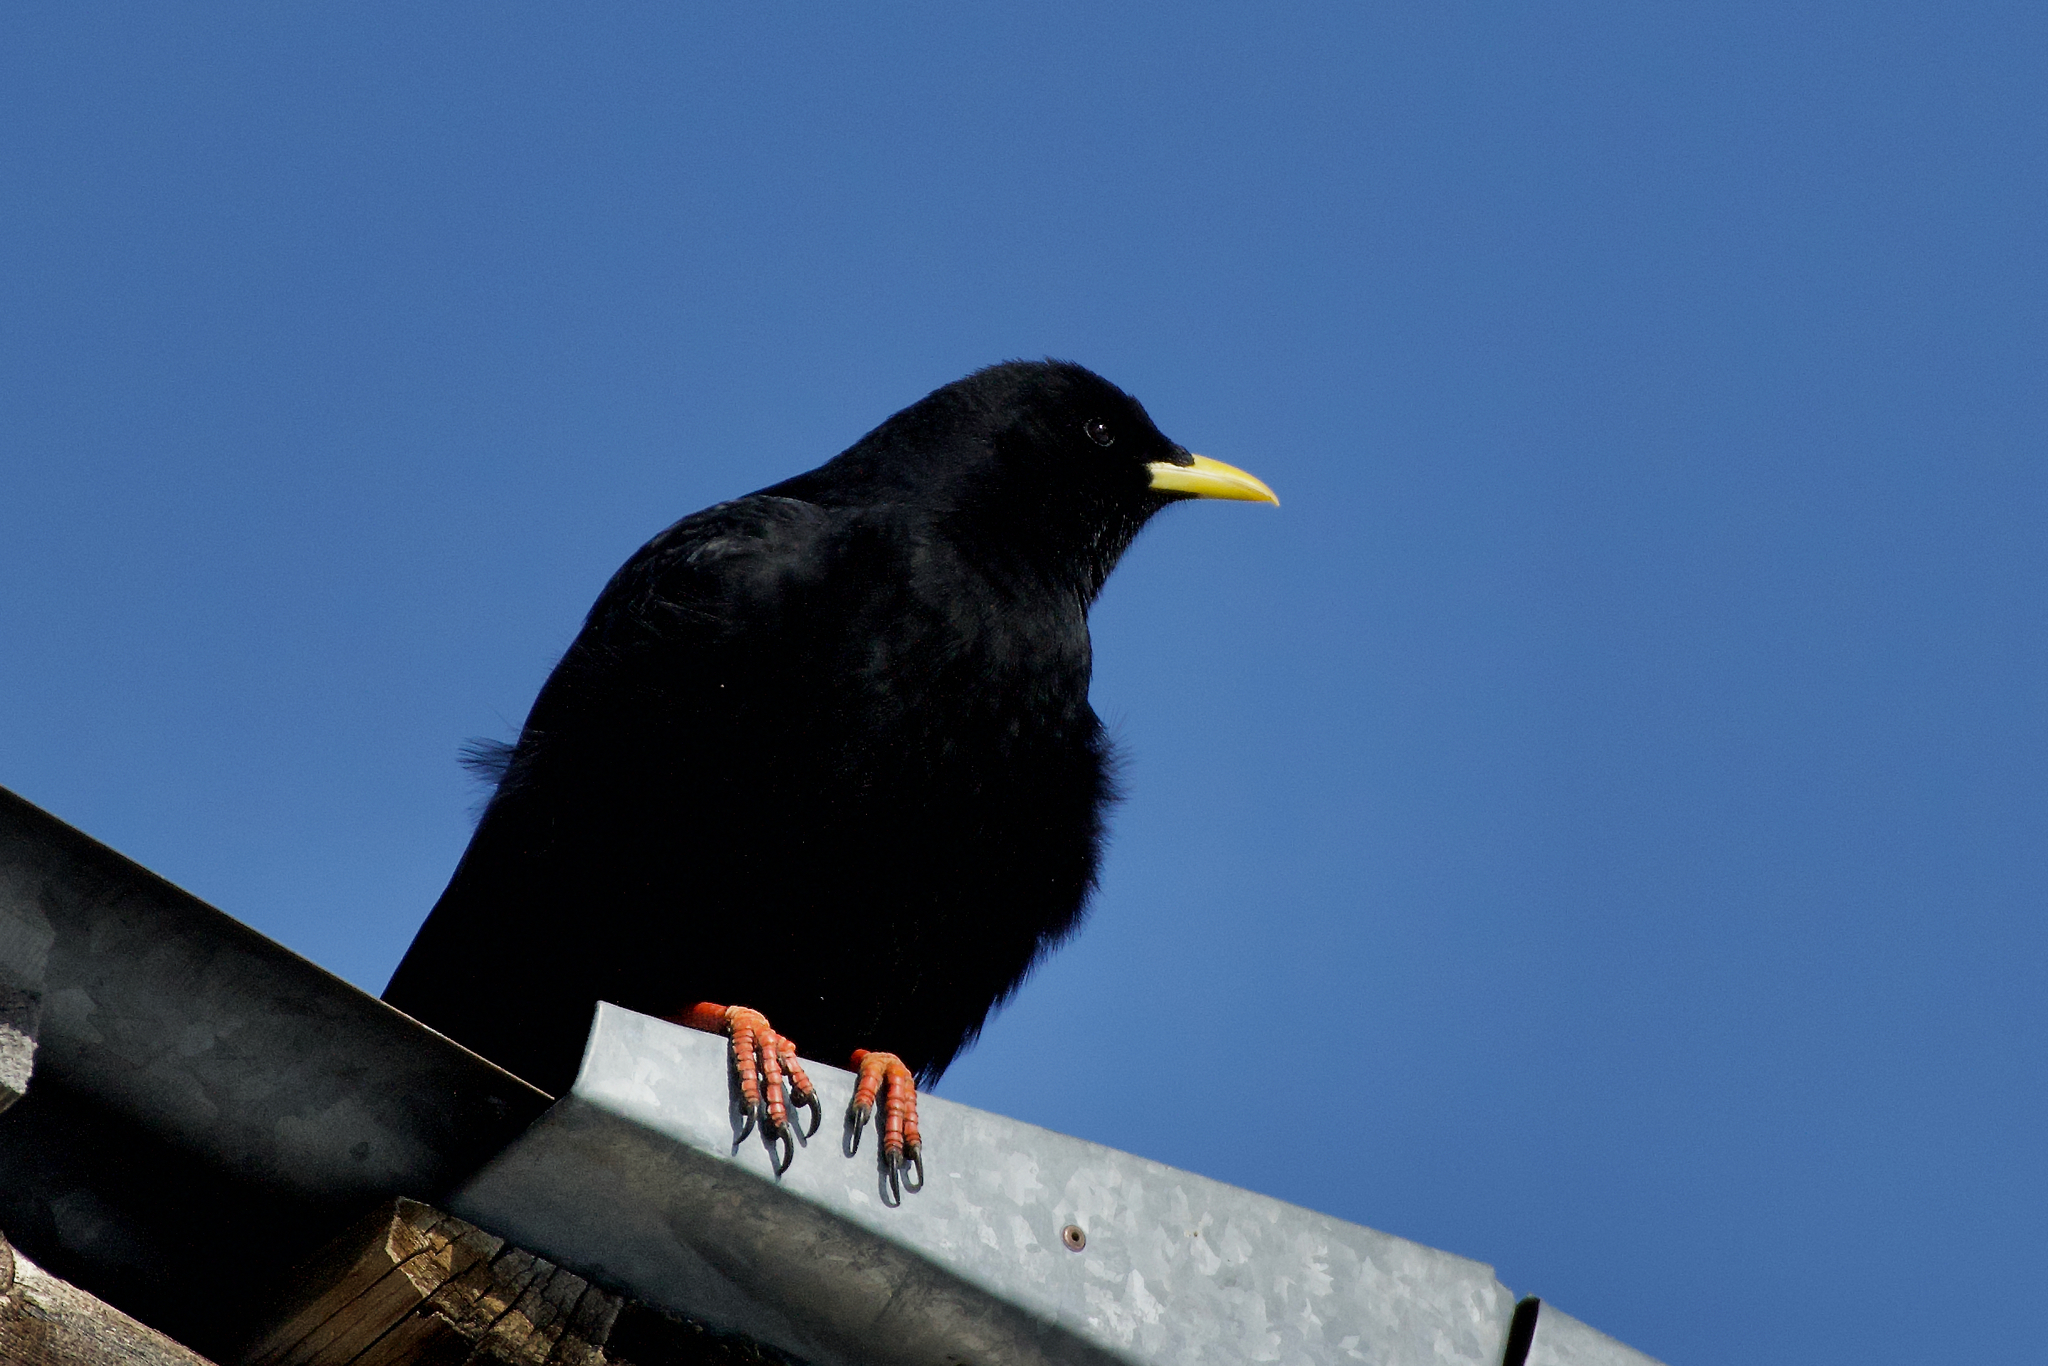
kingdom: Animalia
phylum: Chordata
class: Aves
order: Passeriformes
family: Corvidae
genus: Pyrrhocorax
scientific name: Pyrrhocorax graculus
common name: Alpine chough
